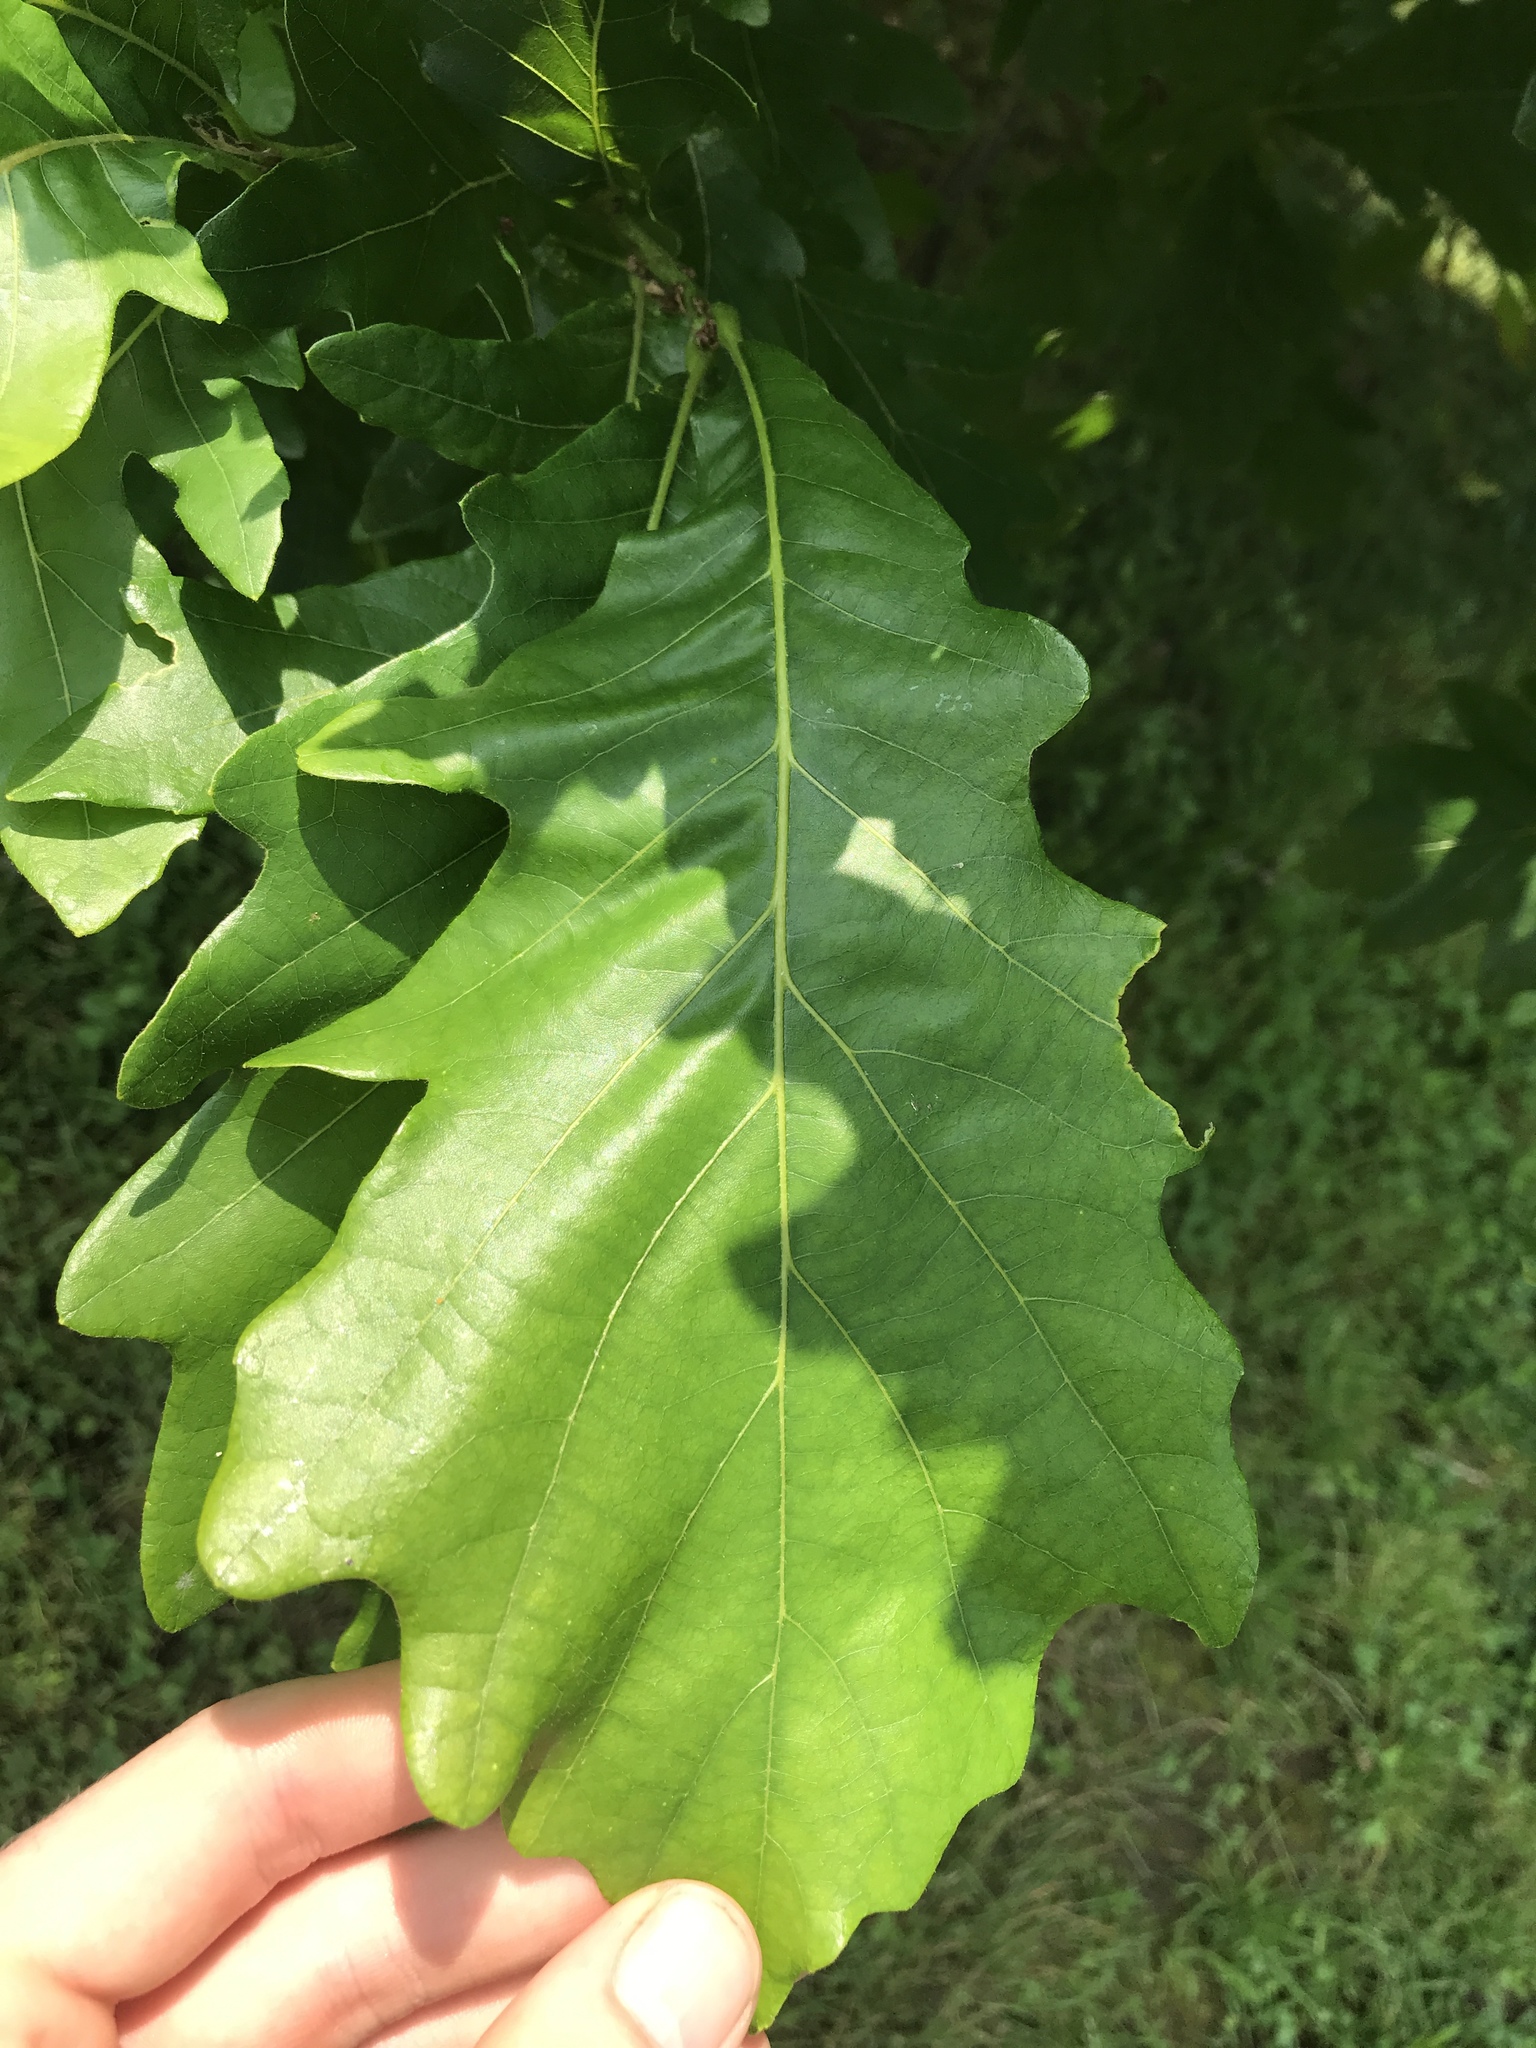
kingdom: Plantae
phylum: Tracheophyta
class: Magnoliopsida
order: Fagales
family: Fagaceae
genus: Quercus
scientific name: Quercus bicolor
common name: Swamp white oak
